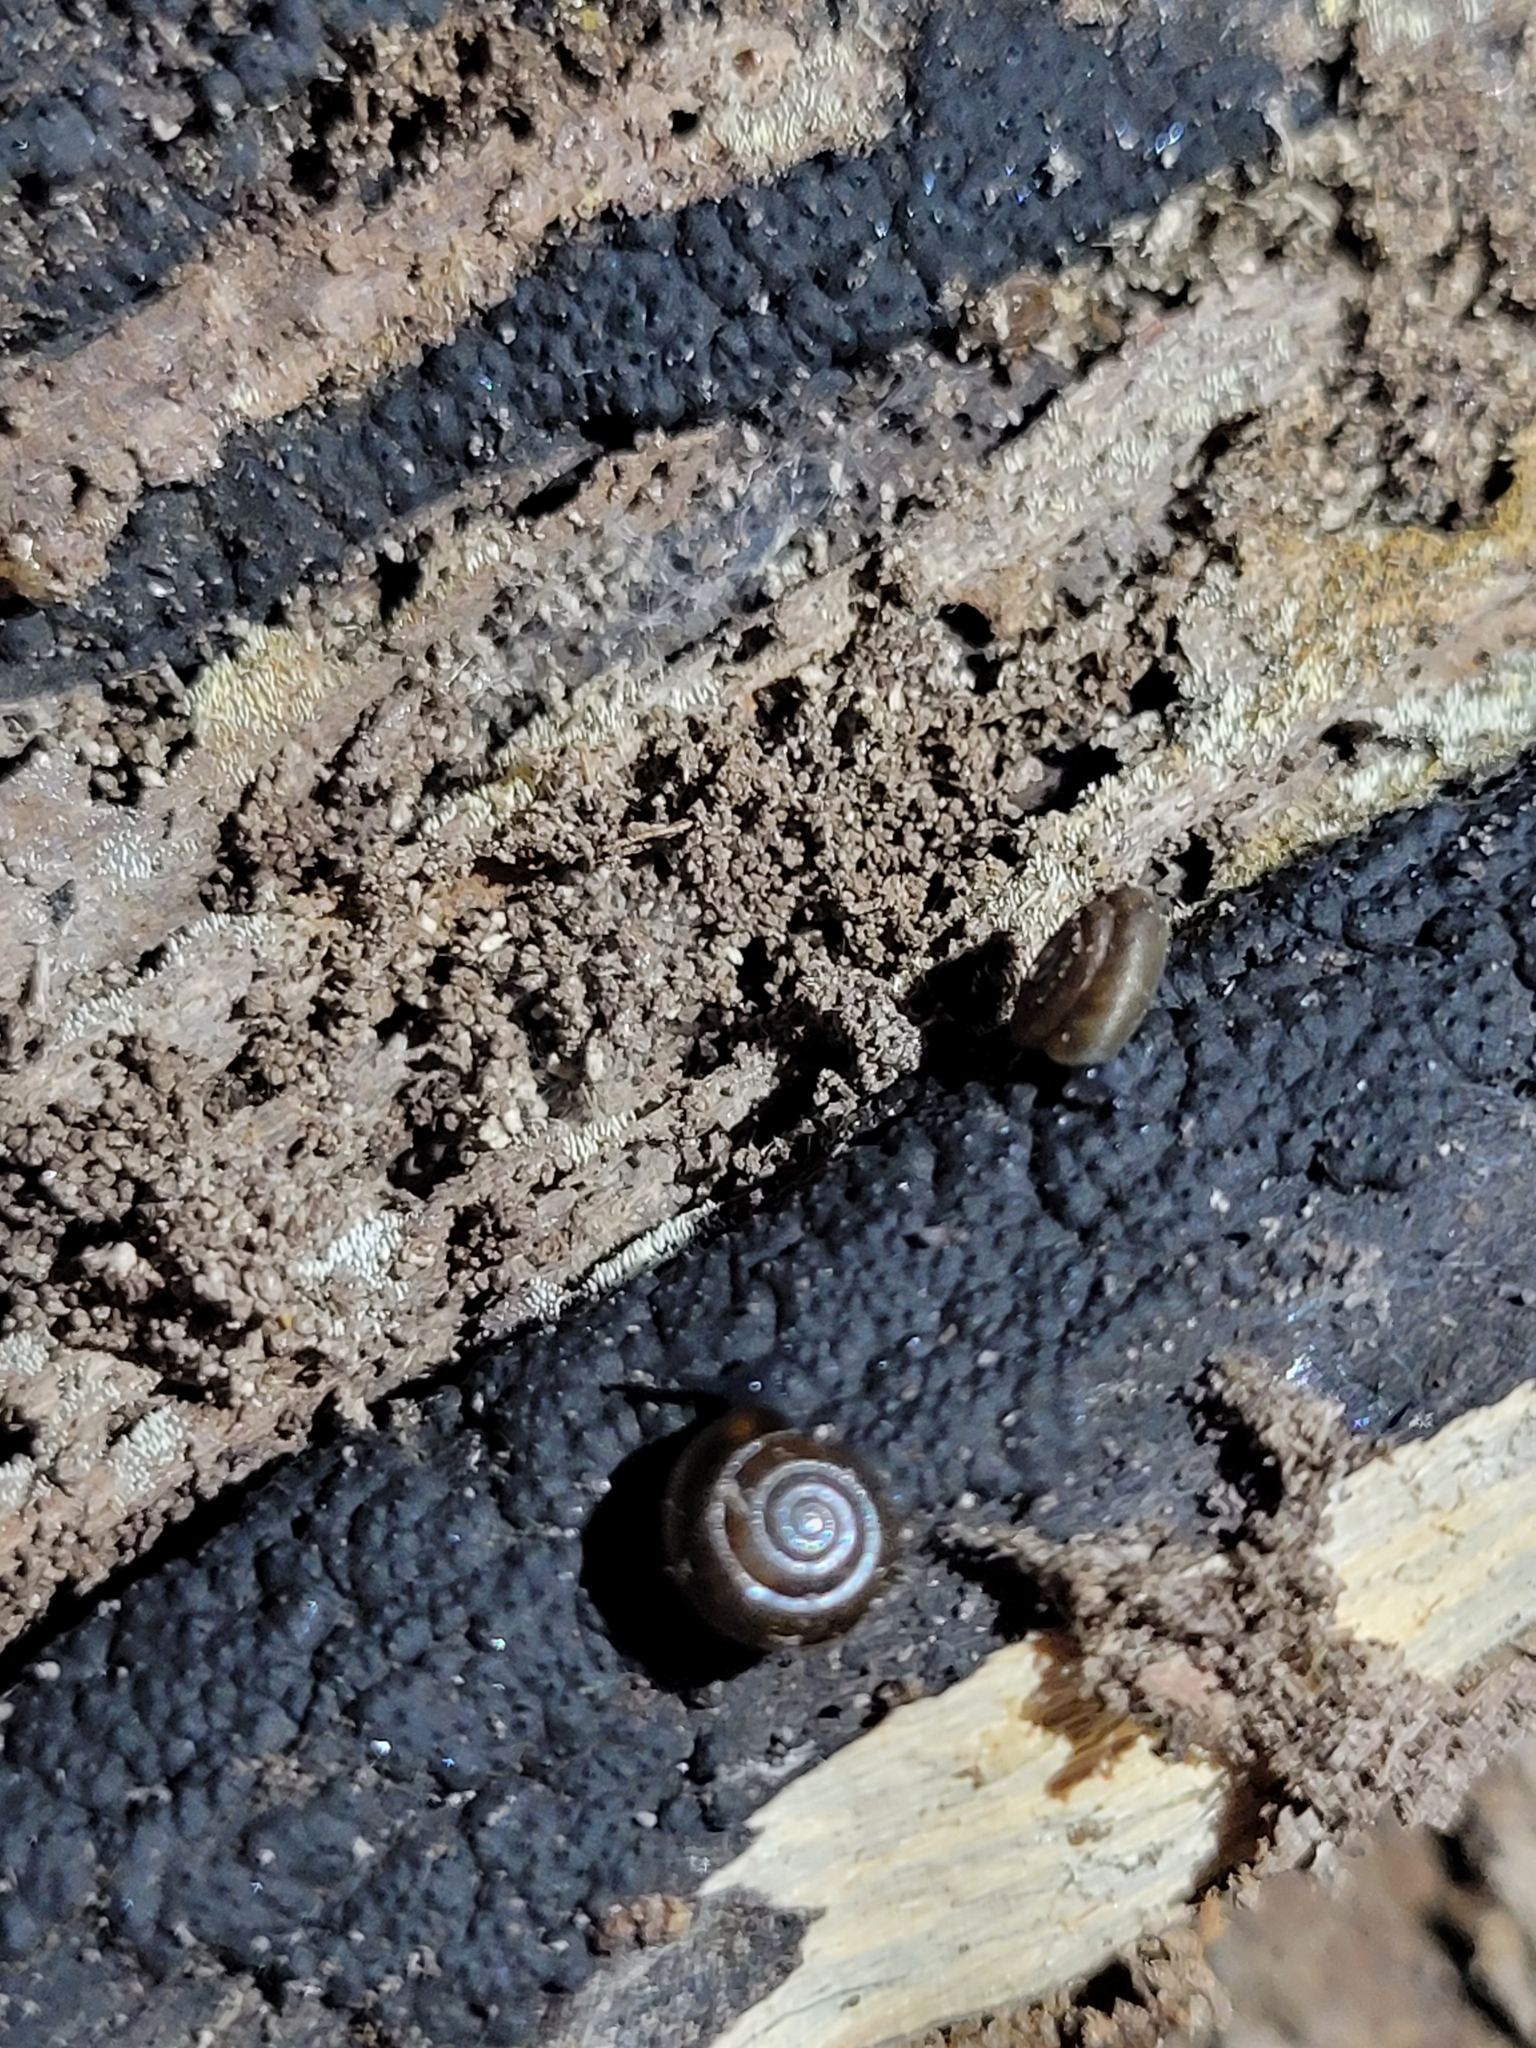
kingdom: Animalia
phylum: Mollusca
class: Gastropoda
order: Stylommatophora
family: Gastrodontidae
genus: Zonitoides
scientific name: Zonitoides nitidus
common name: Shiny glass snail
